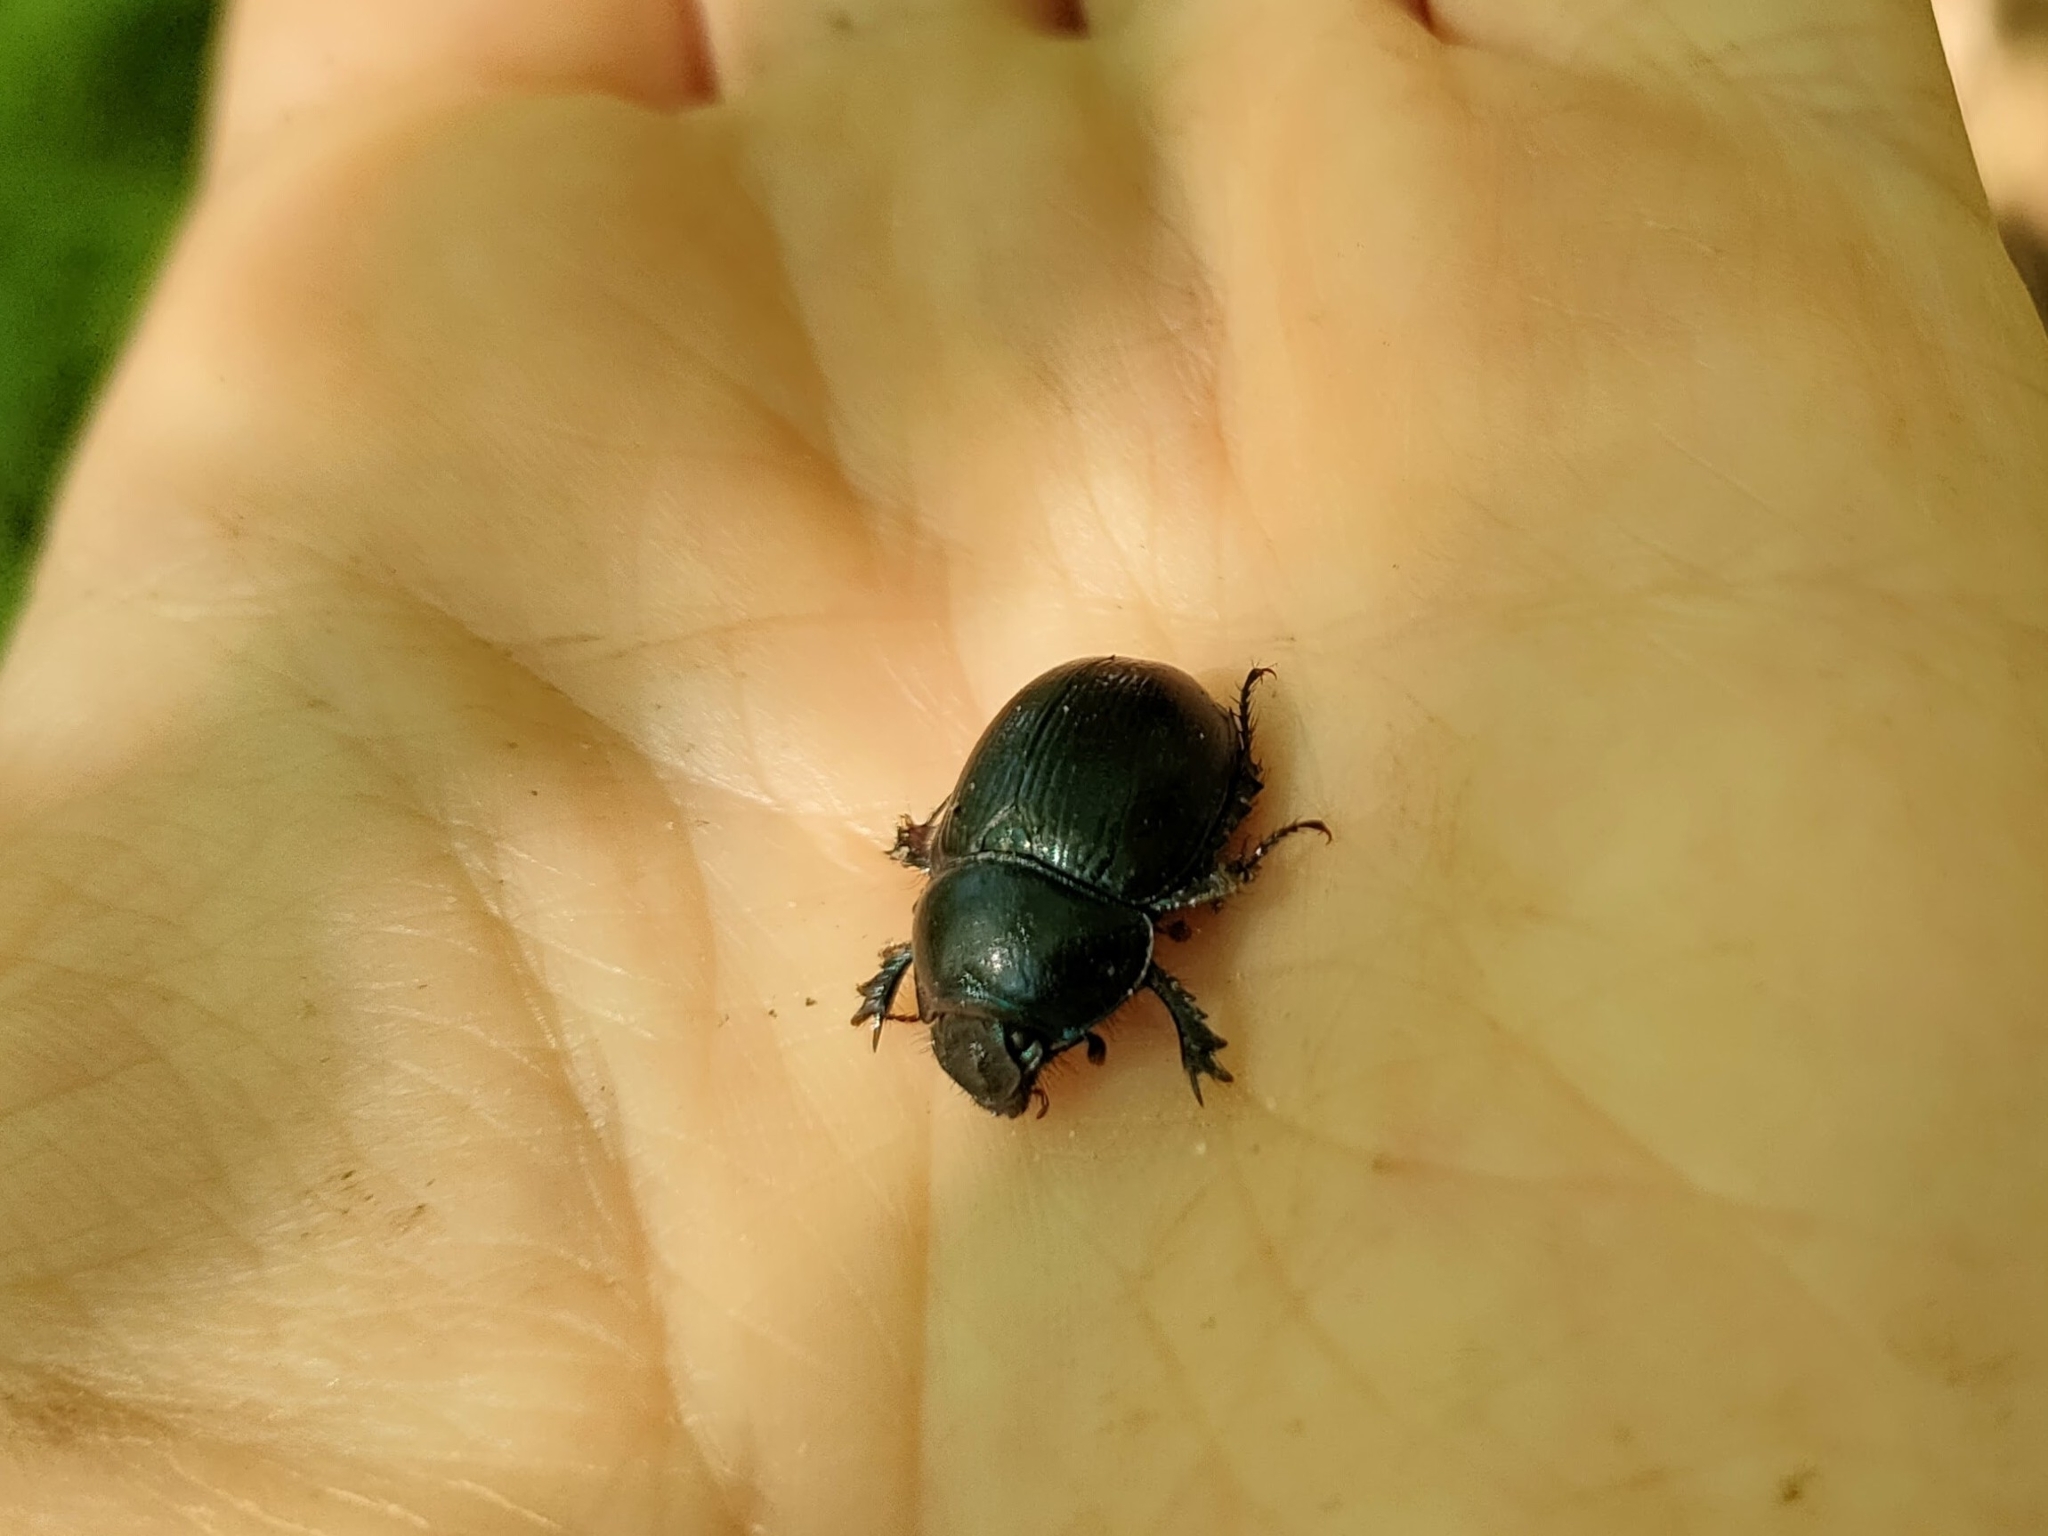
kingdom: Animalia
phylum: Arthropoda
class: Insecta
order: Coleoptera
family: Geotrupidae
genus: Anoplotrupes
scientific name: Anoplotrupes stercorosus
